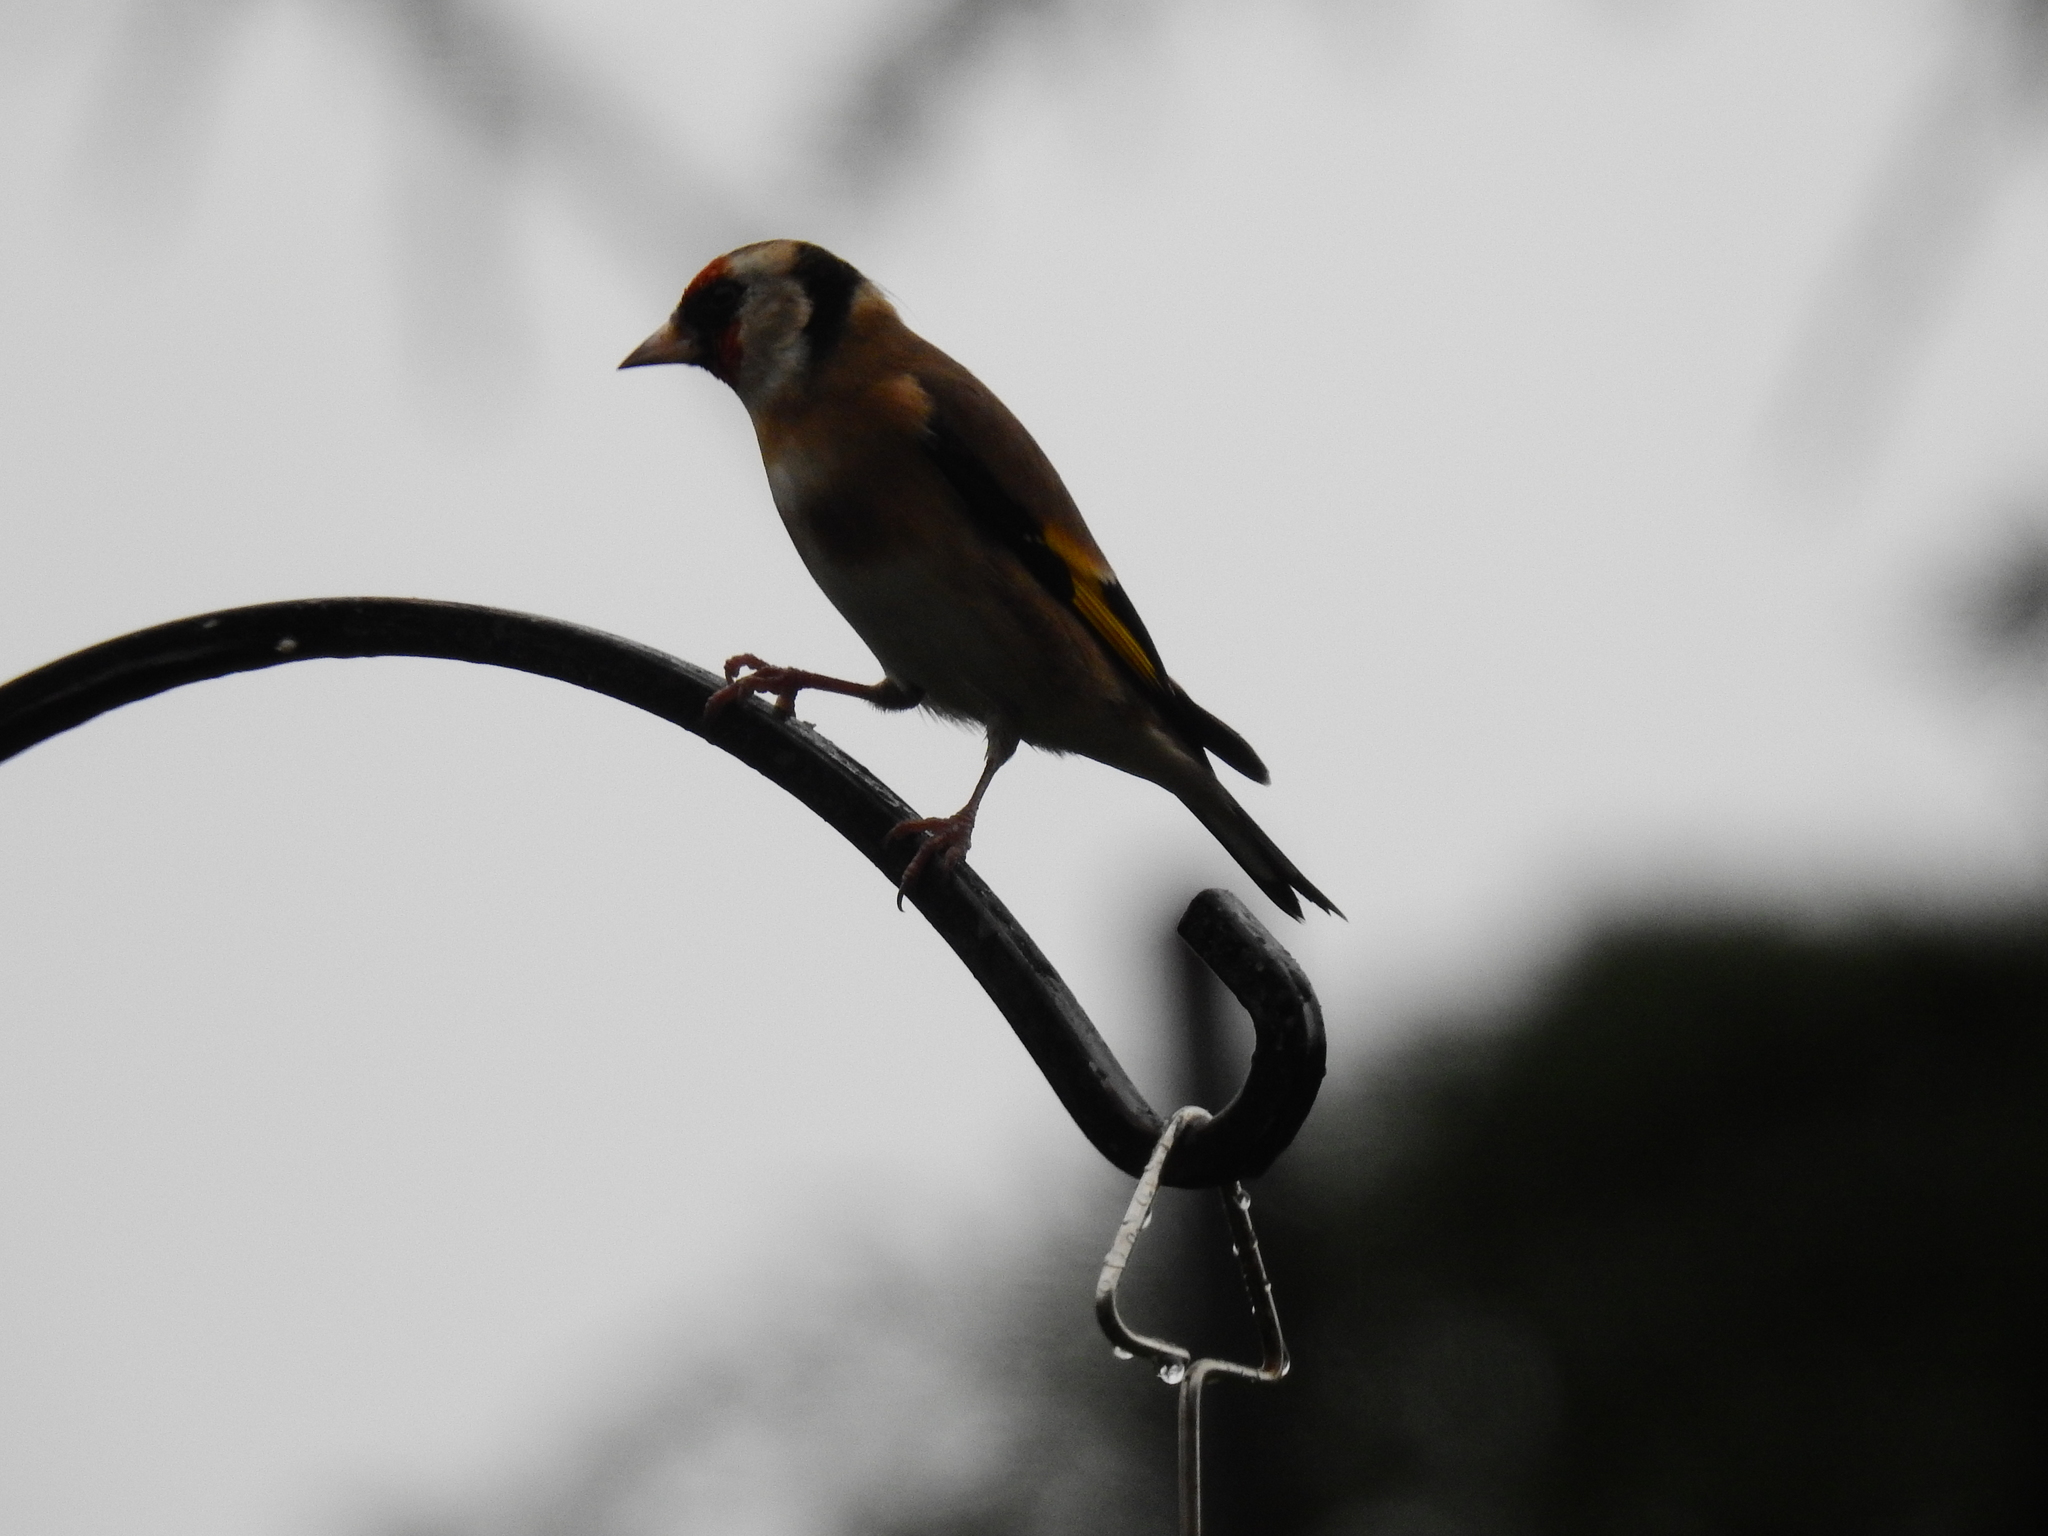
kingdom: Animalia
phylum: Chordata
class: Aves
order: Passeriformes
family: Fringillidae
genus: Carduelis
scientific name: Carduelis carduelis
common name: European goldfinch
